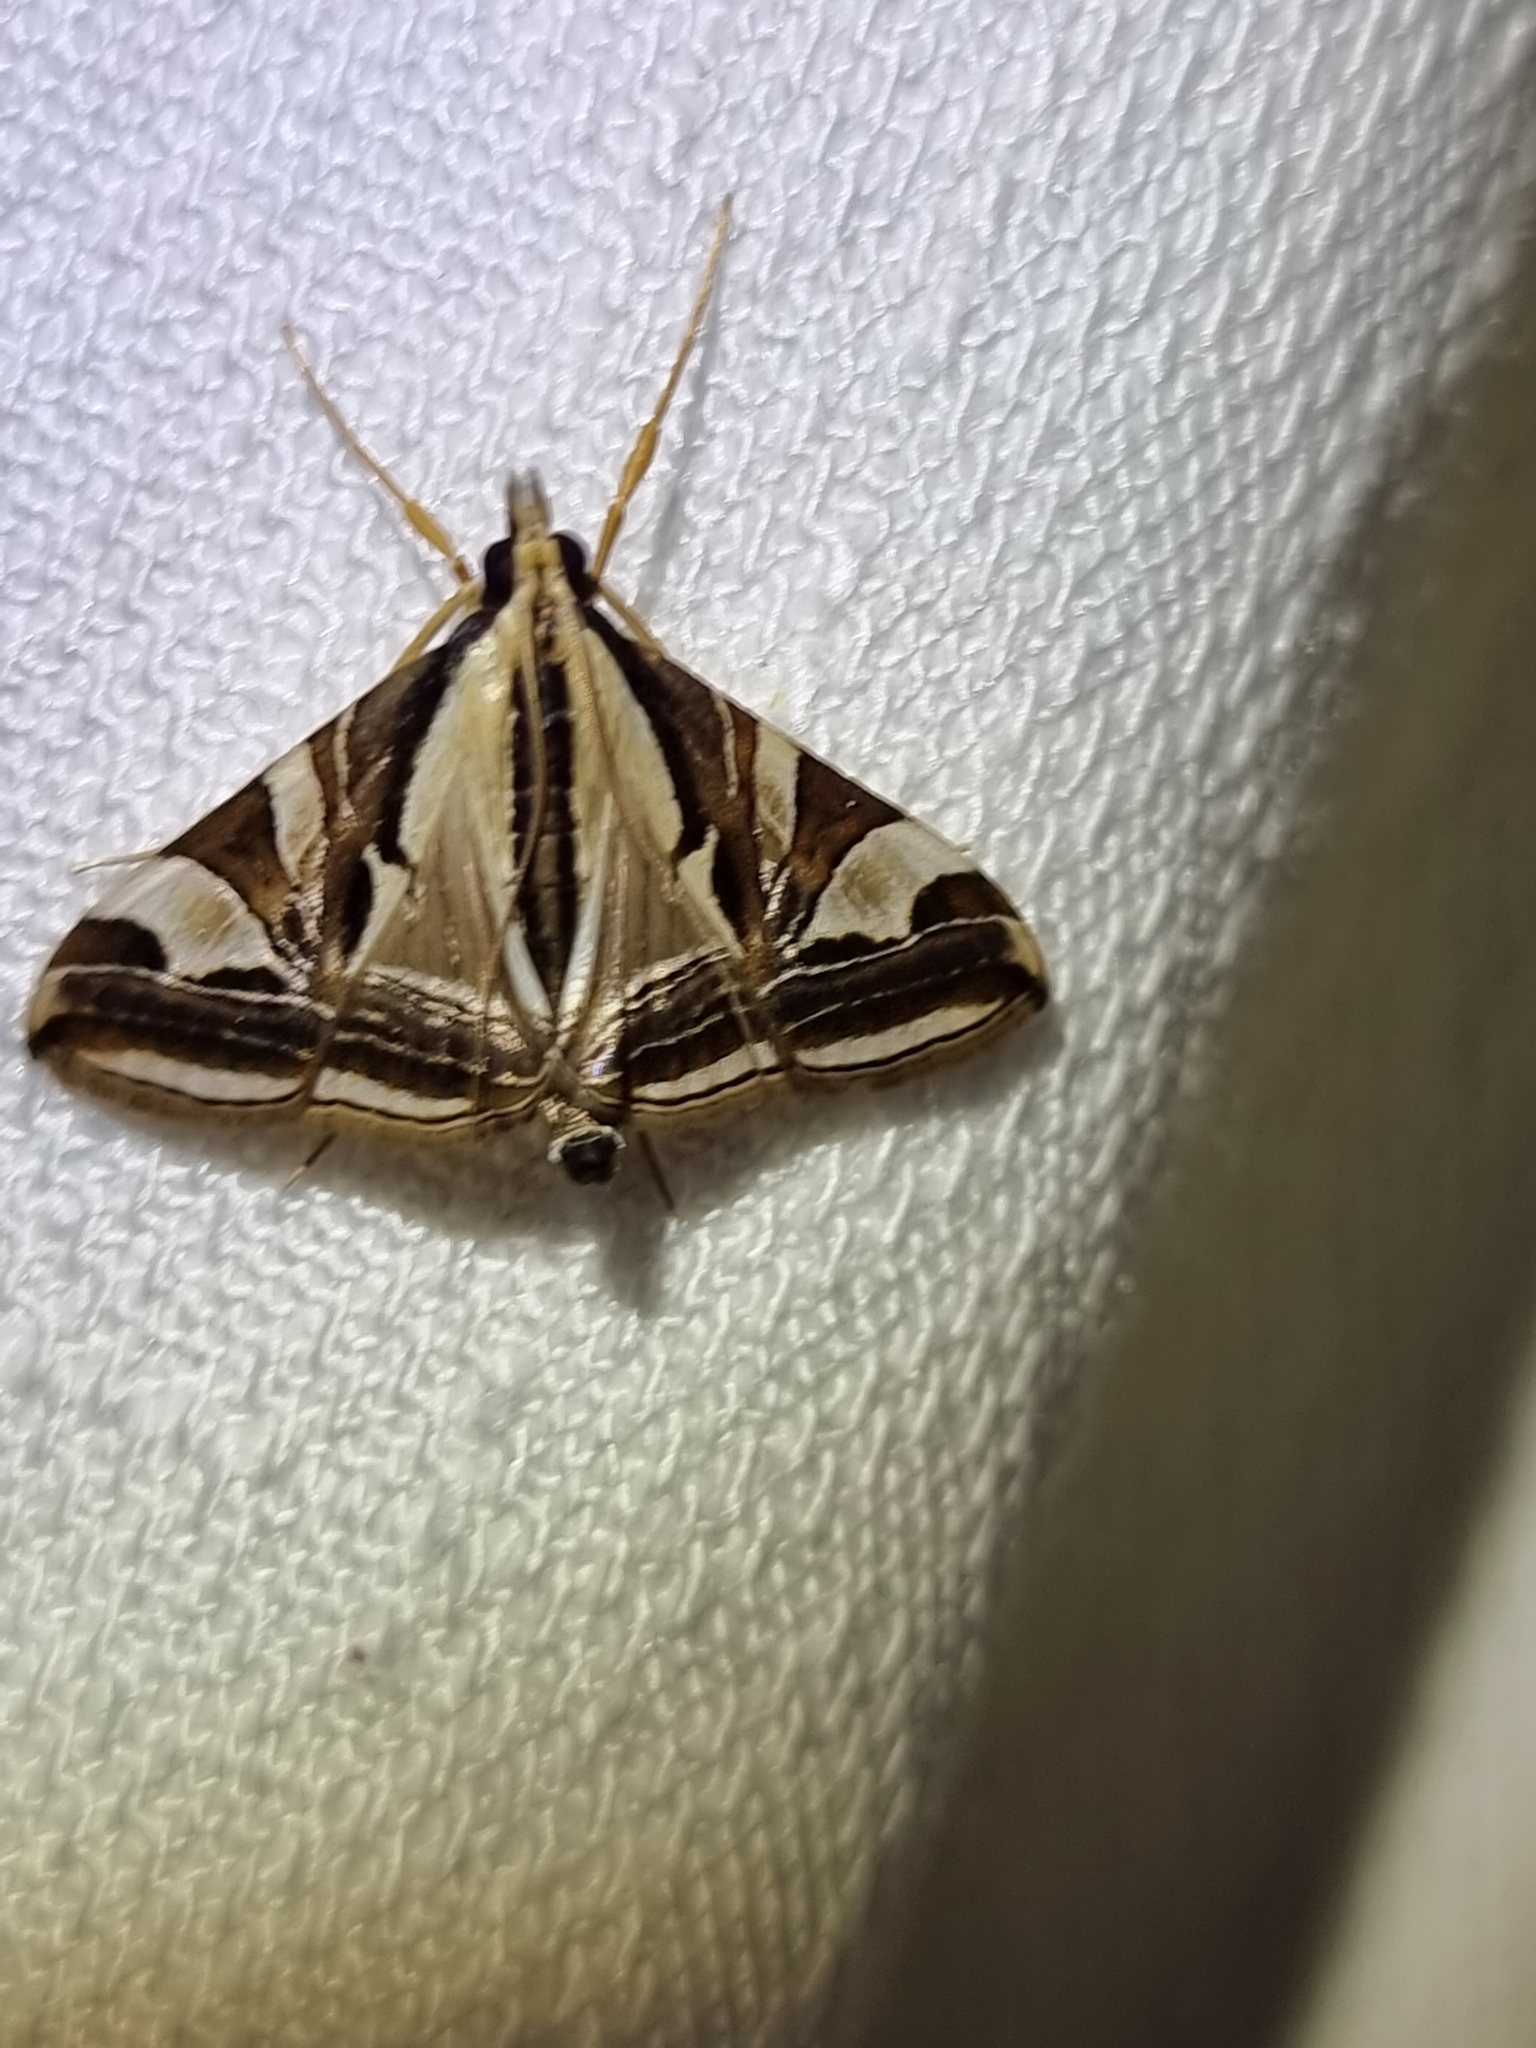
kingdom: Animalia
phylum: Arthropoda
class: Insecta
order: Lepidoptera
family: Crambidae
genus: Agrioglypta
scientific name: Agrioglypta excelsalis
